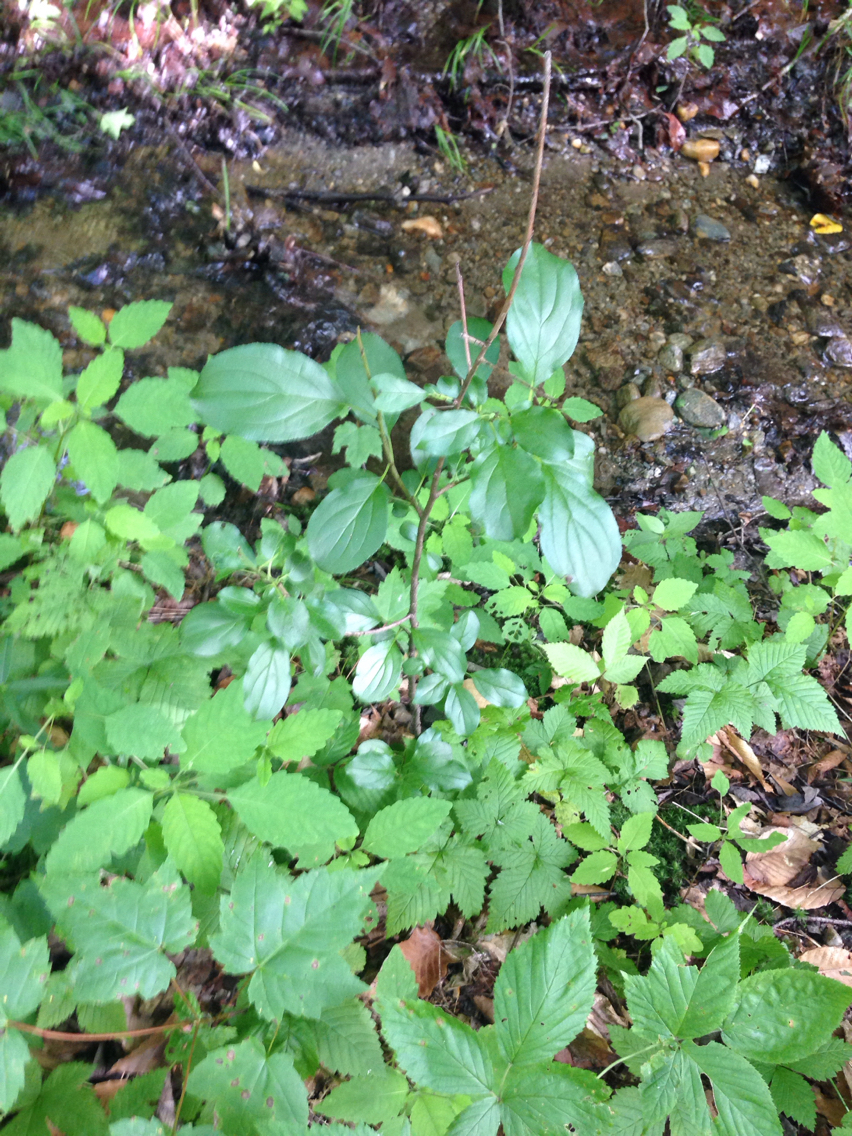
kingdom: Plantae
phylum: Tracheophyta
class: Magnoliopsida
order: Rosales
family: Rhamnaceae
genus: Rhamnus
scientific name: Rhamnus cathartica
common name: Common buckthorn
